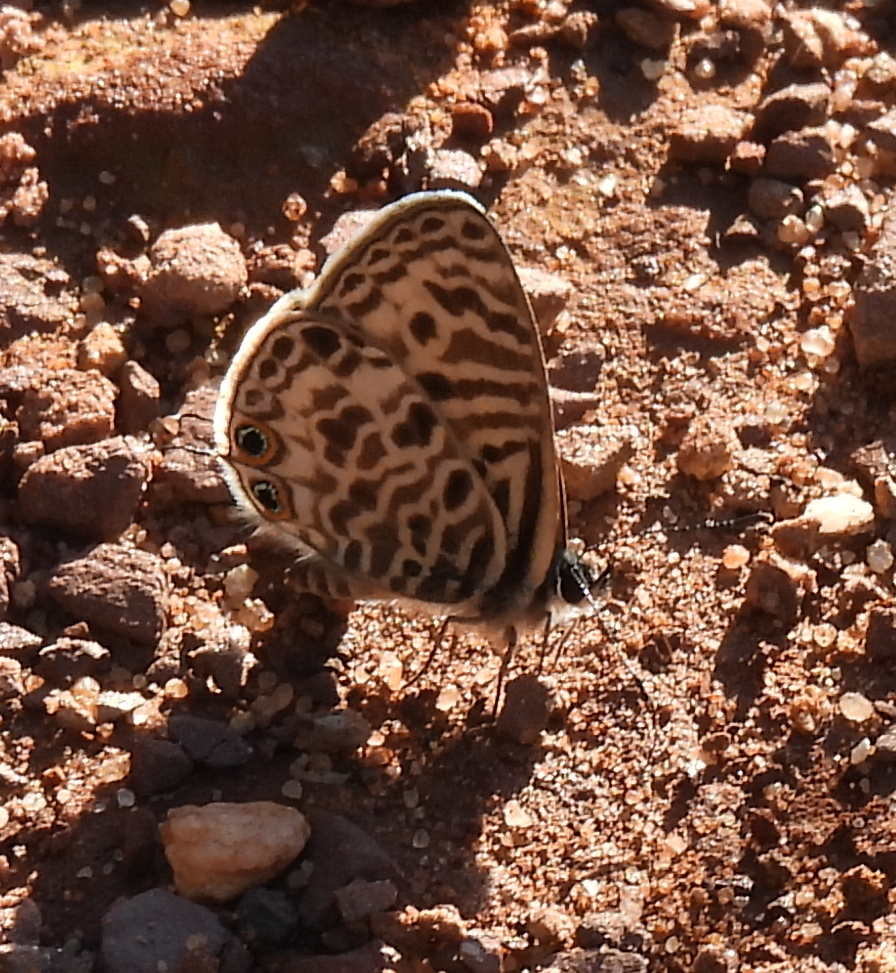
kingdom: Animalia
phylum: Arthropoda
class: Insecta
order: Lepidoptera
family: Lycaenidae
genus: Leptotes
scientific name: Leptotes
